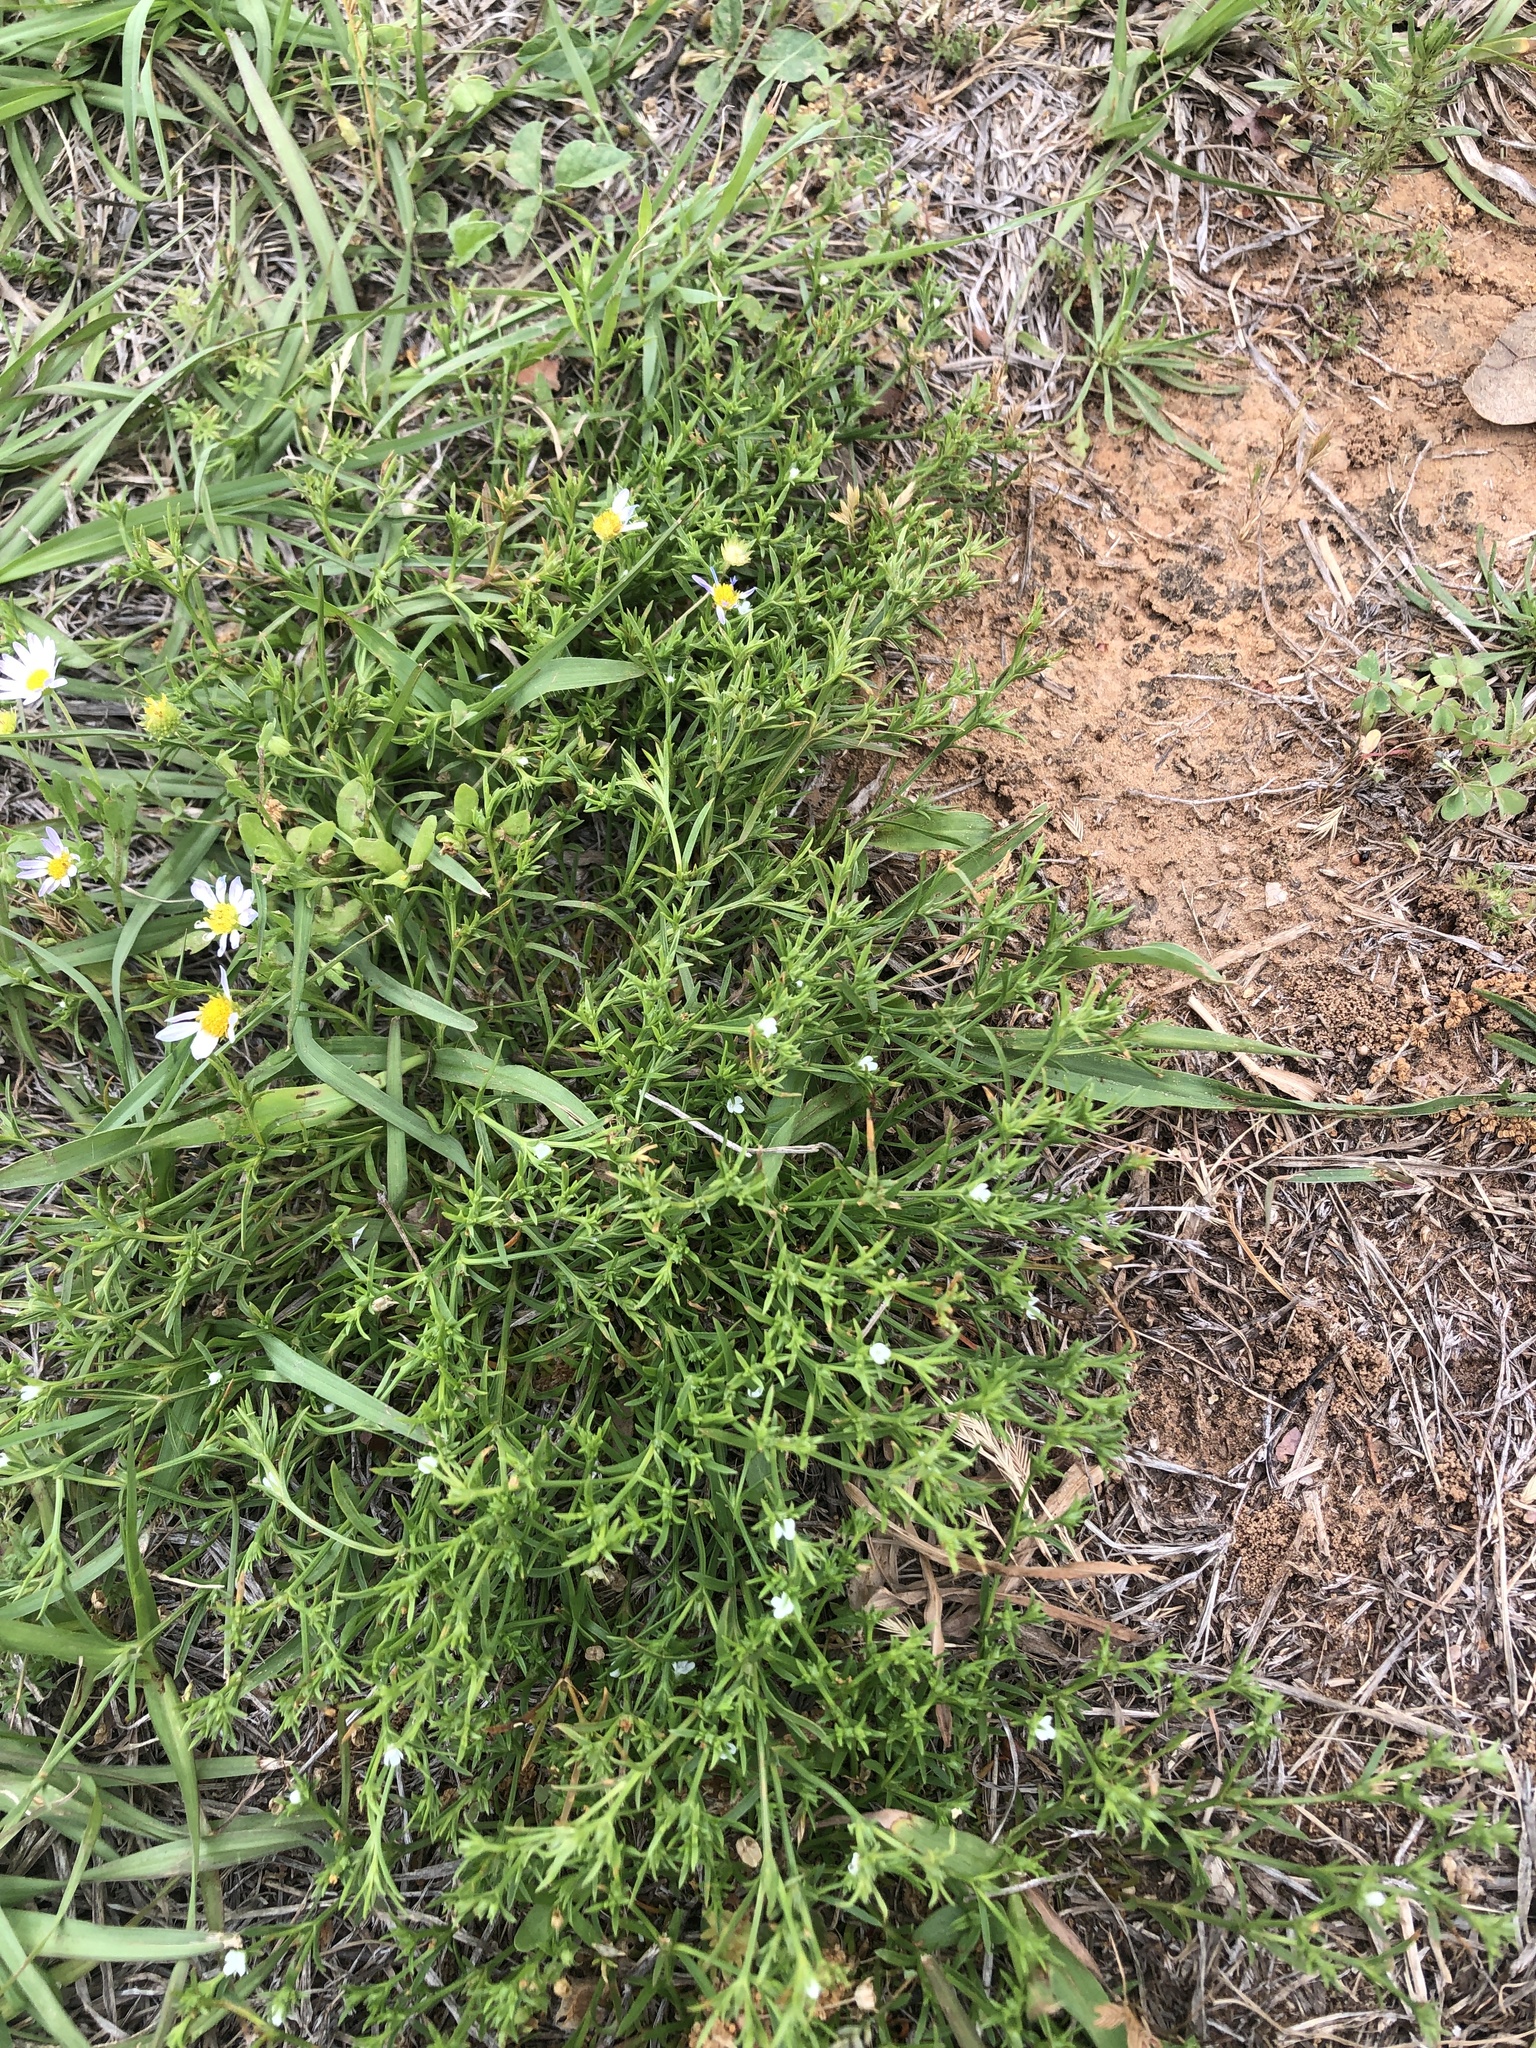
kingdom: Plantae
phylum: Tracheophyta
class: Magnoliopsida
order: Lamiales
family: Tetrachondraceae
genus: Polypremum
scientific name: Polypremum procumbens
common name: Juniper-leaf
